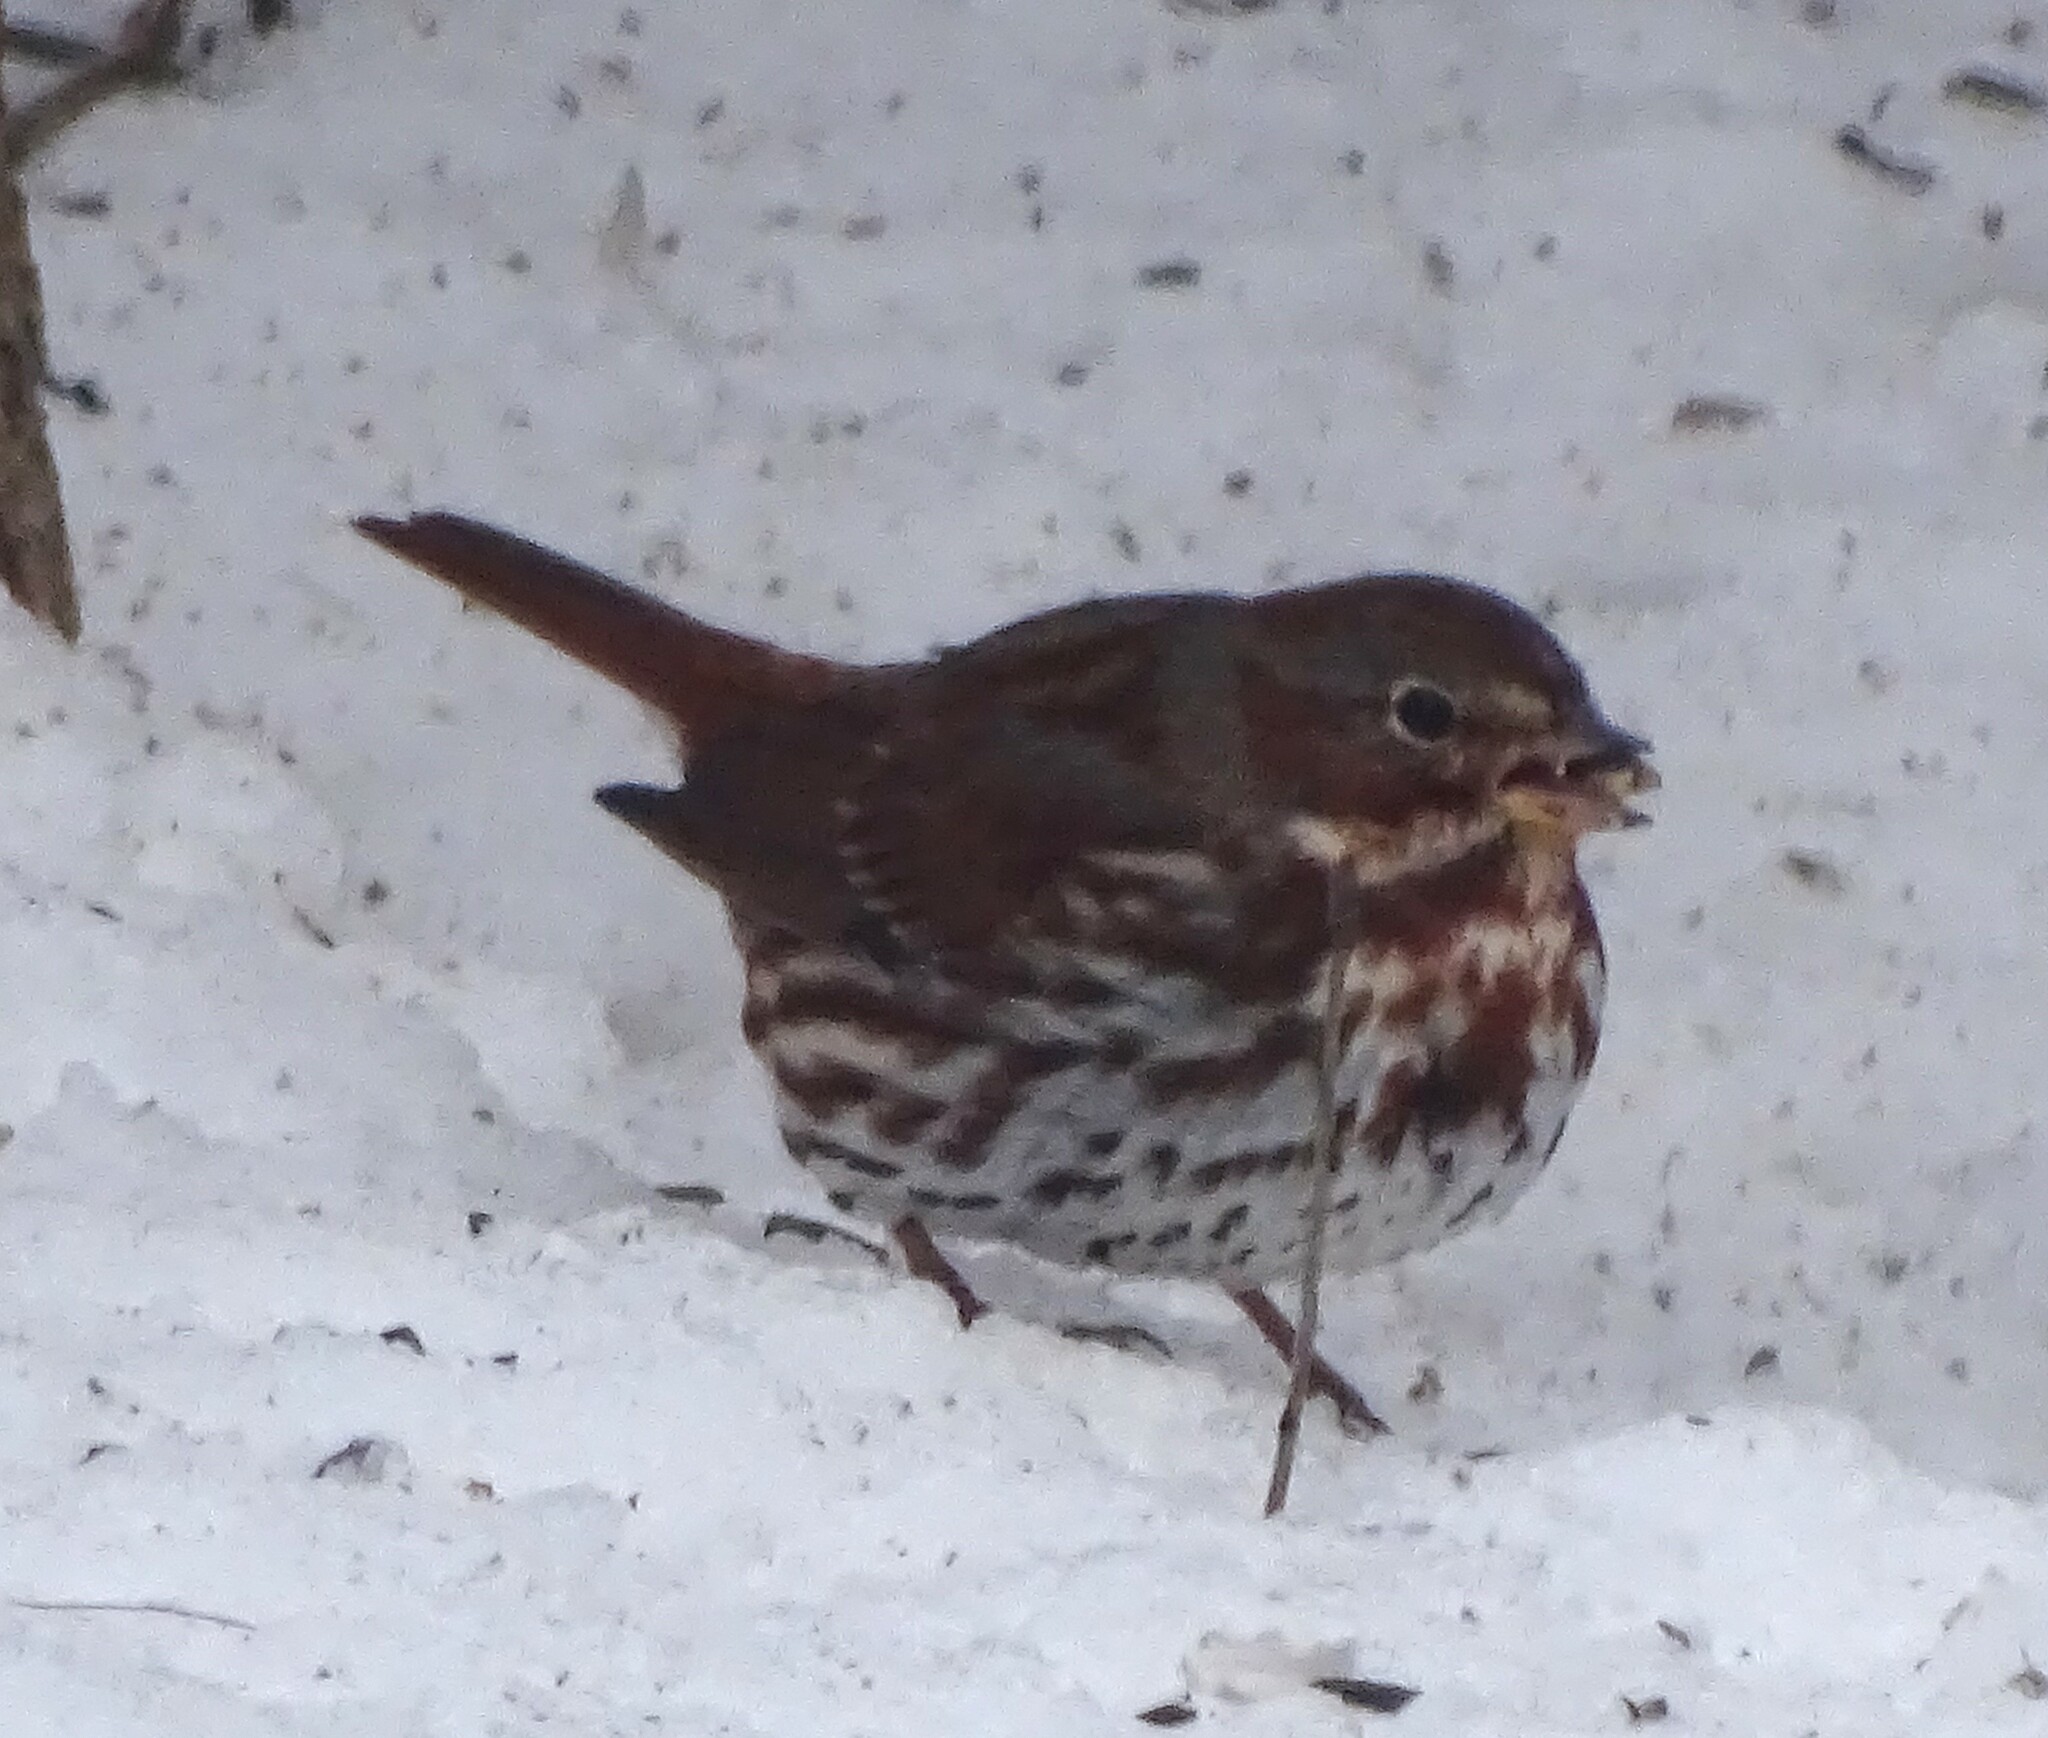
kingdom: Animalia
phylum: Chordata
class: Aves
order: Passeriformes
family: Passerellidae
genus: Passerella
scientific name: Passerella iliaca
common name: Fox sparrow
